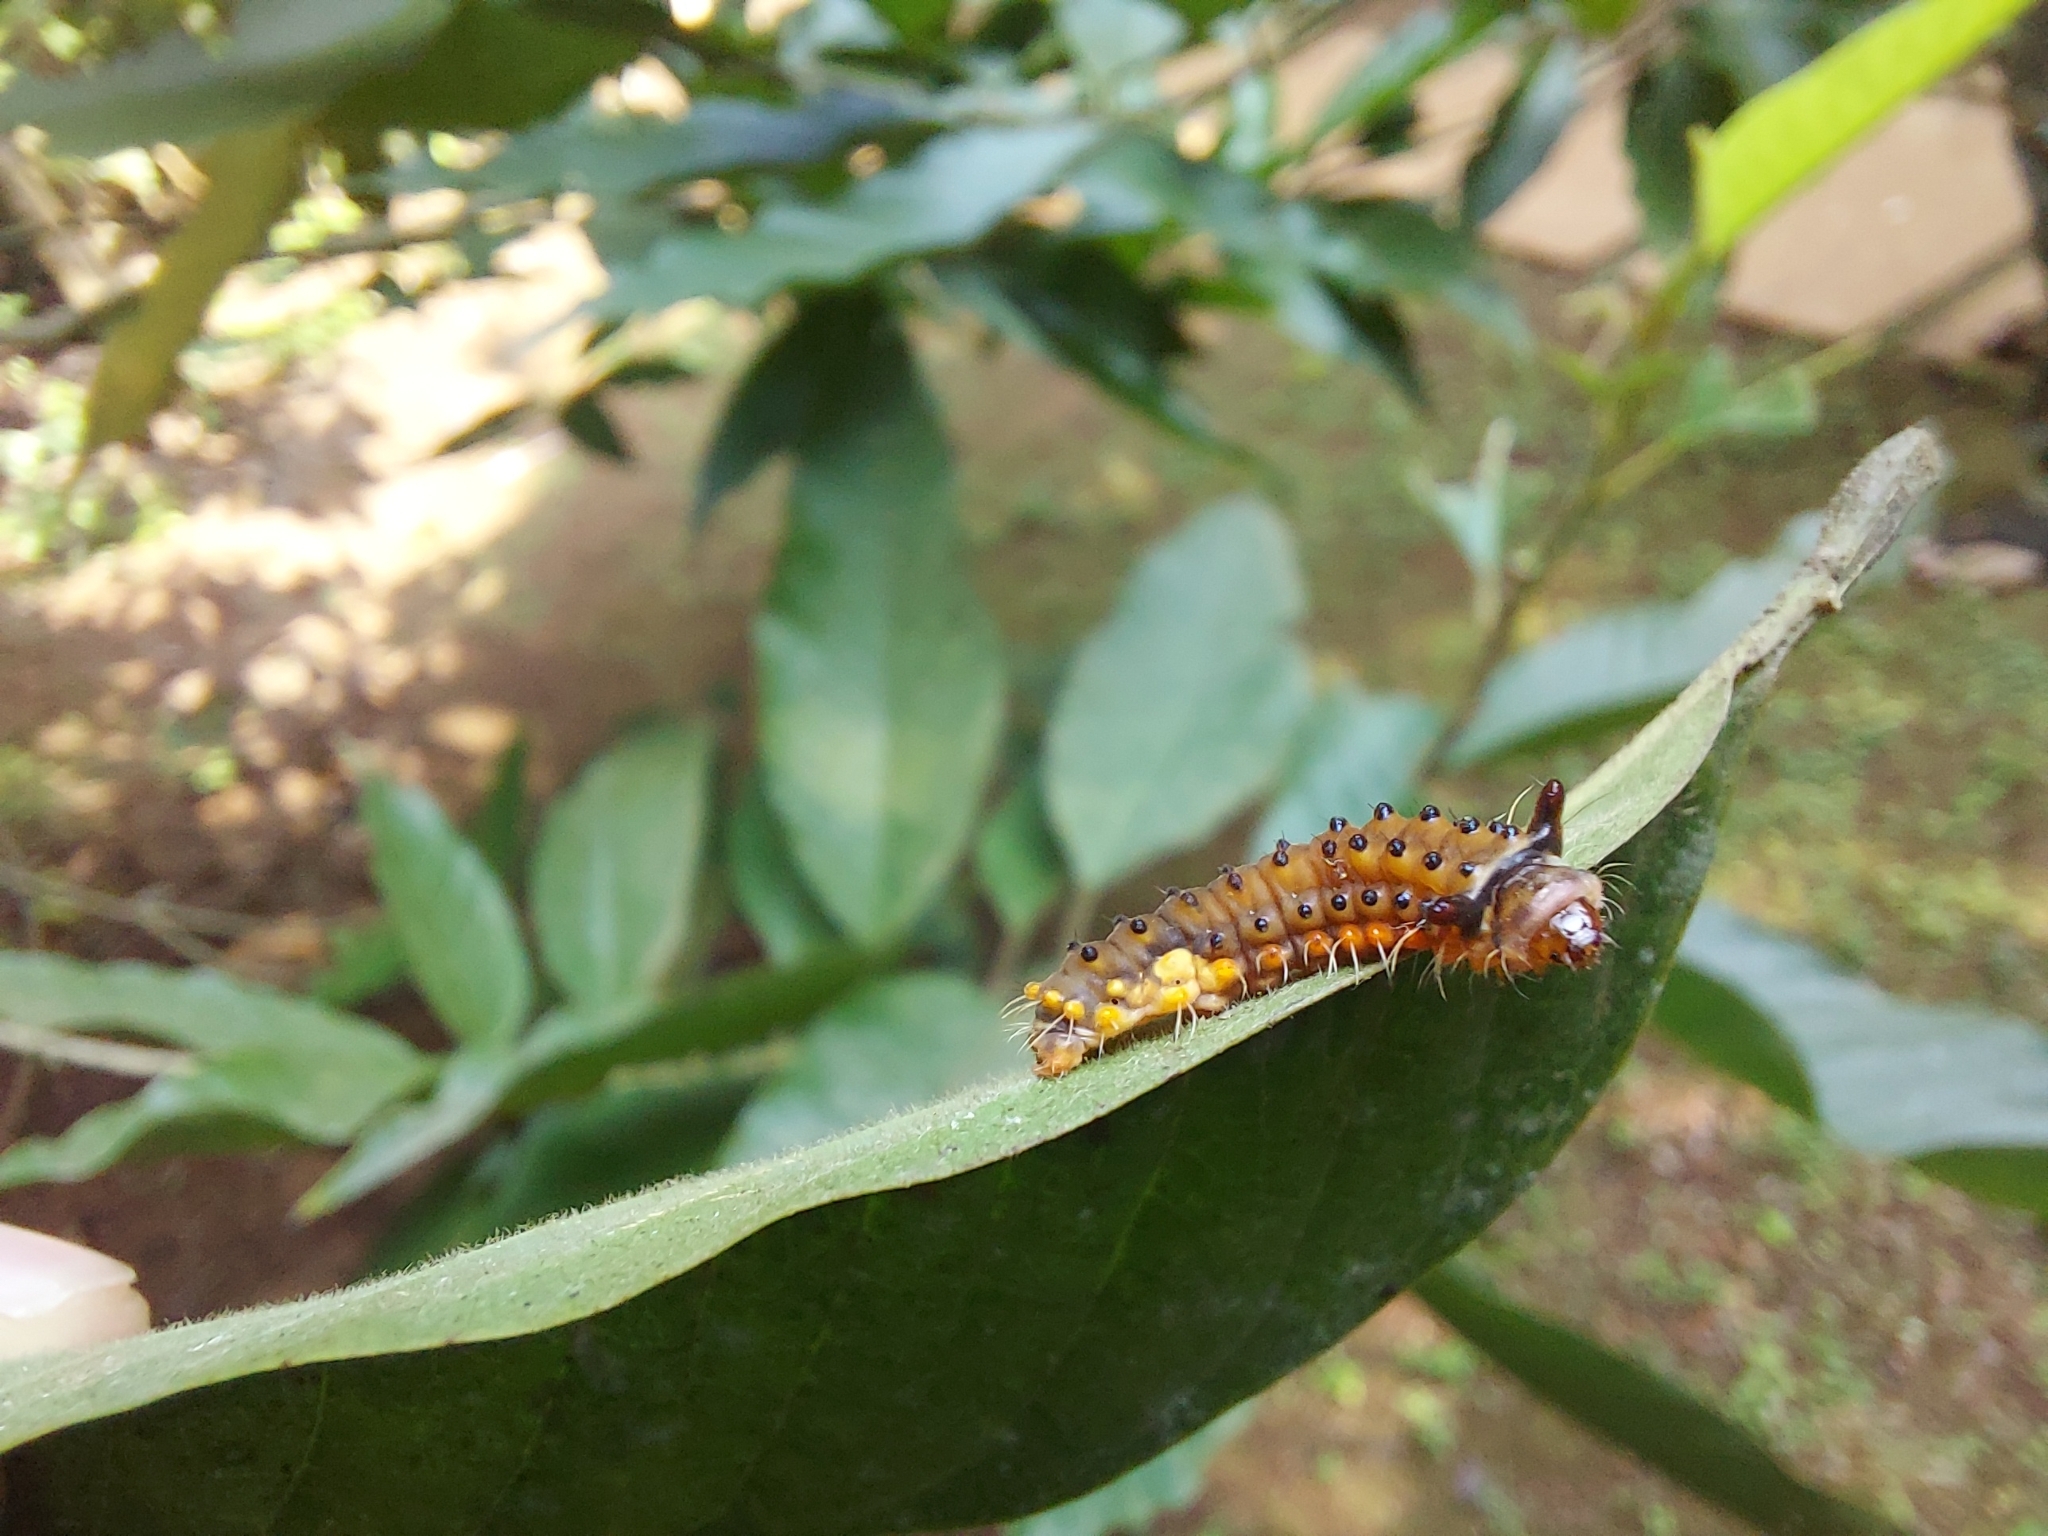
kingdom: Animalia
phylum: Arthropoda
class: Insecta
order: Lepidoptera
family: Zygaenidae
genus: Trypanophora
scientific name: Trypanophora semihyalina
